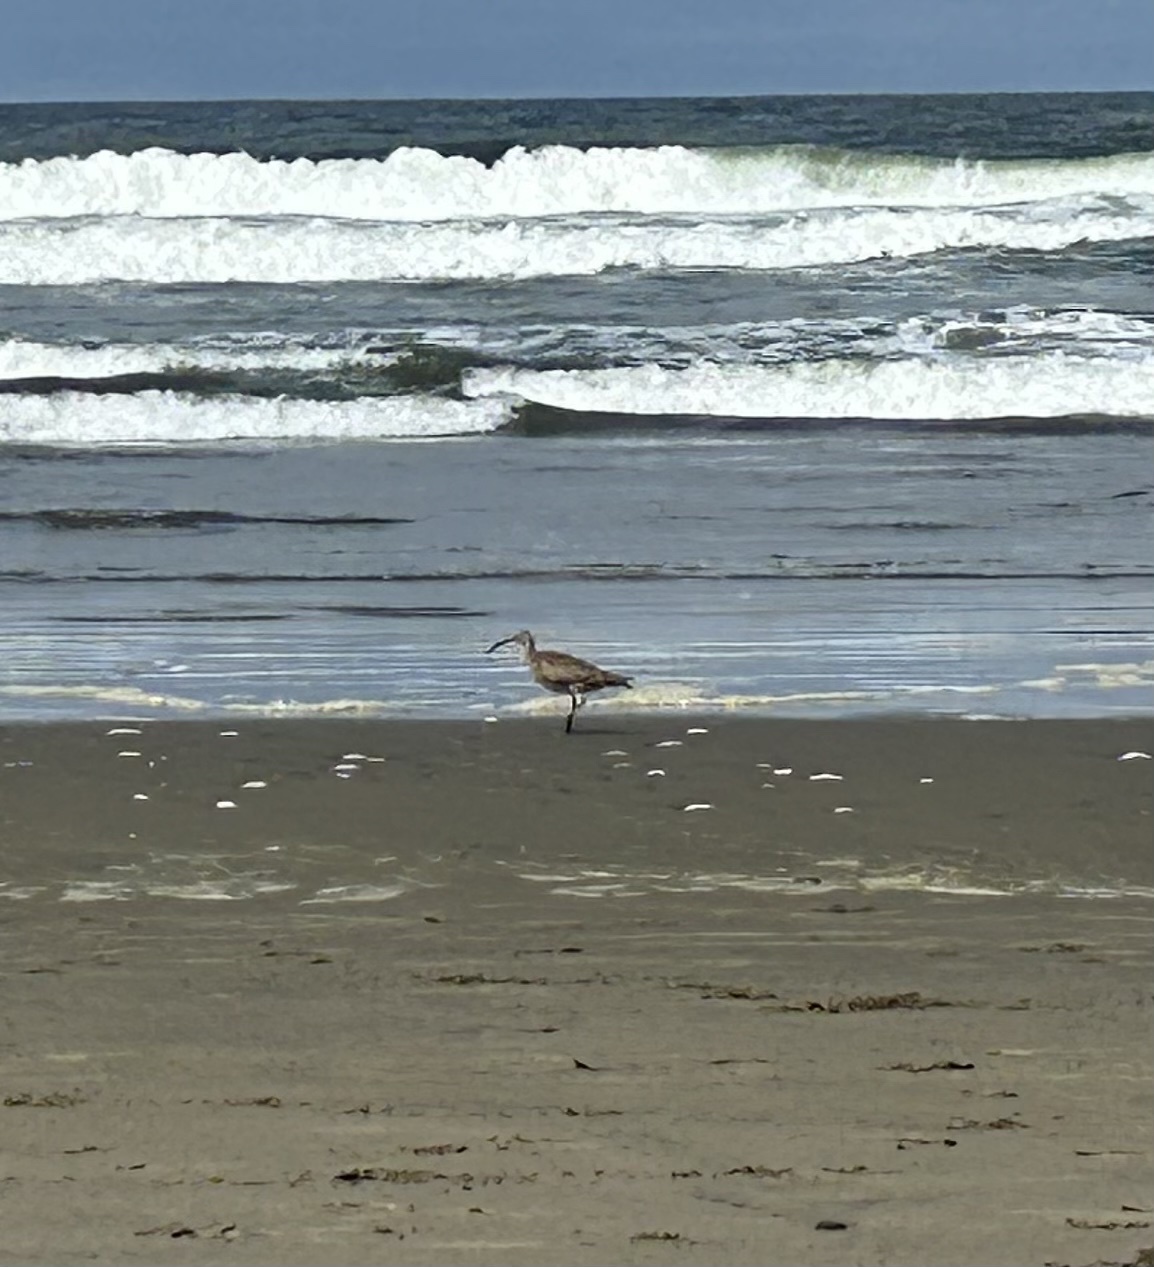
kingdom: Animalia
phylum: Chordata
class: Aves
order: Charadriiformes
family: Scolopacidae
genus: Numenius
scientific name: Numenius phaeopus
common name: Whimbrel
